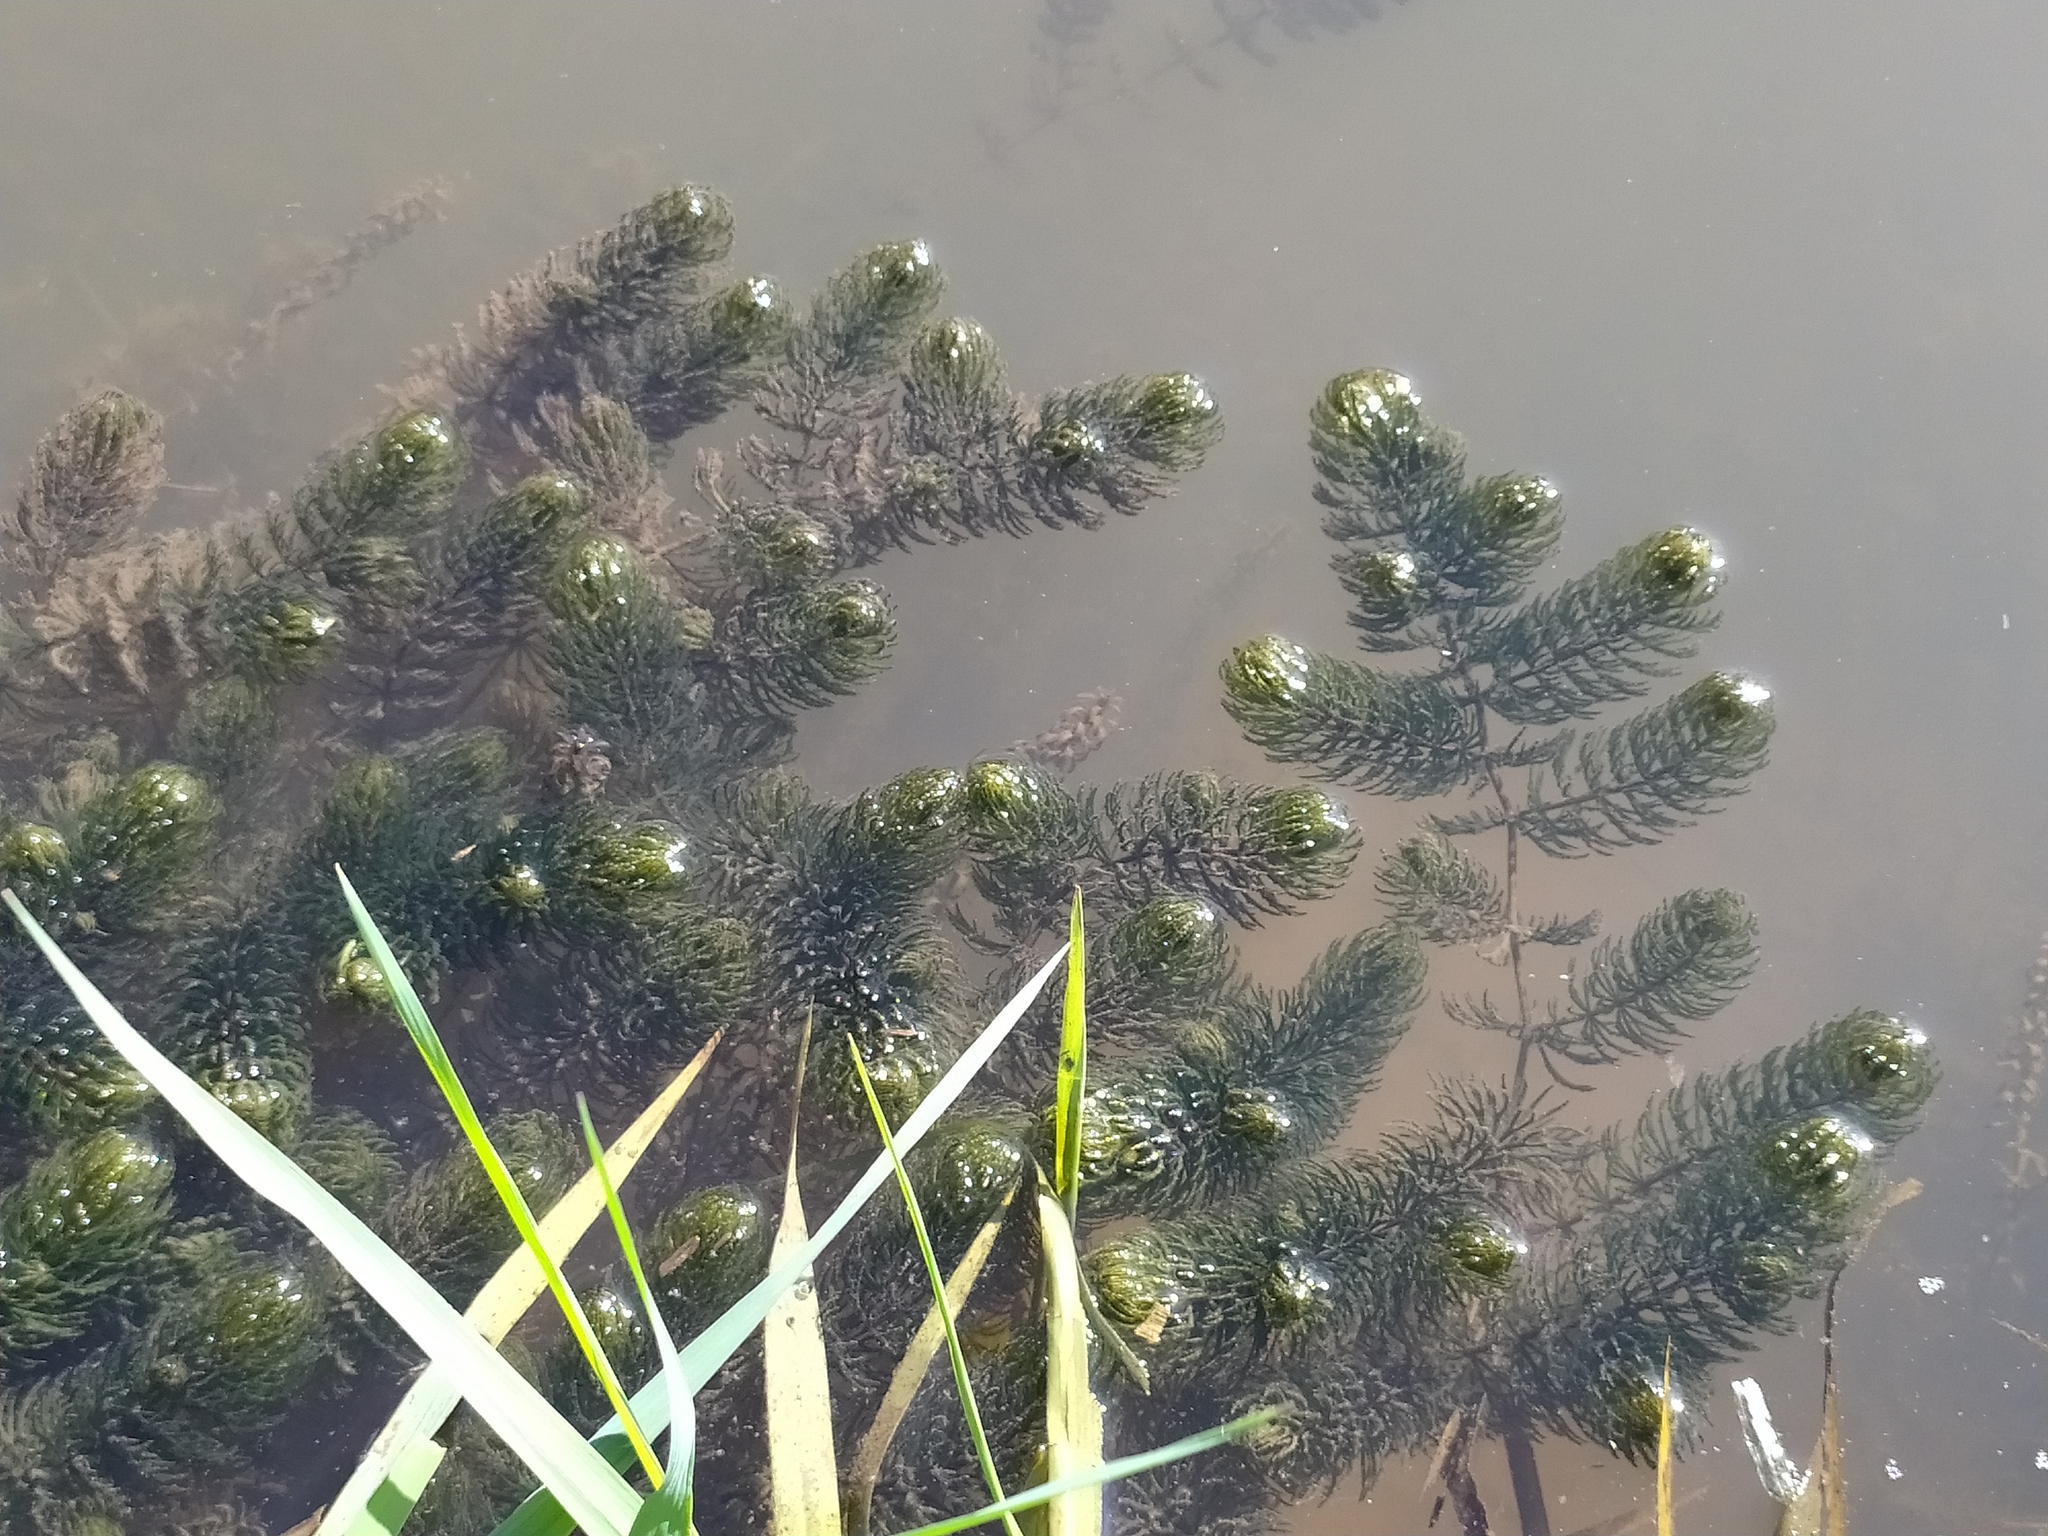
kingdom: Plantae
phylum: Tracheophyta
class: Magnoliopsida
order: Ceratophyllales
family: Ceratophyllaceae
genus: Ceratophyllum
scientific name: Ceratophyllum demersum
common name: Rigid hornwort
